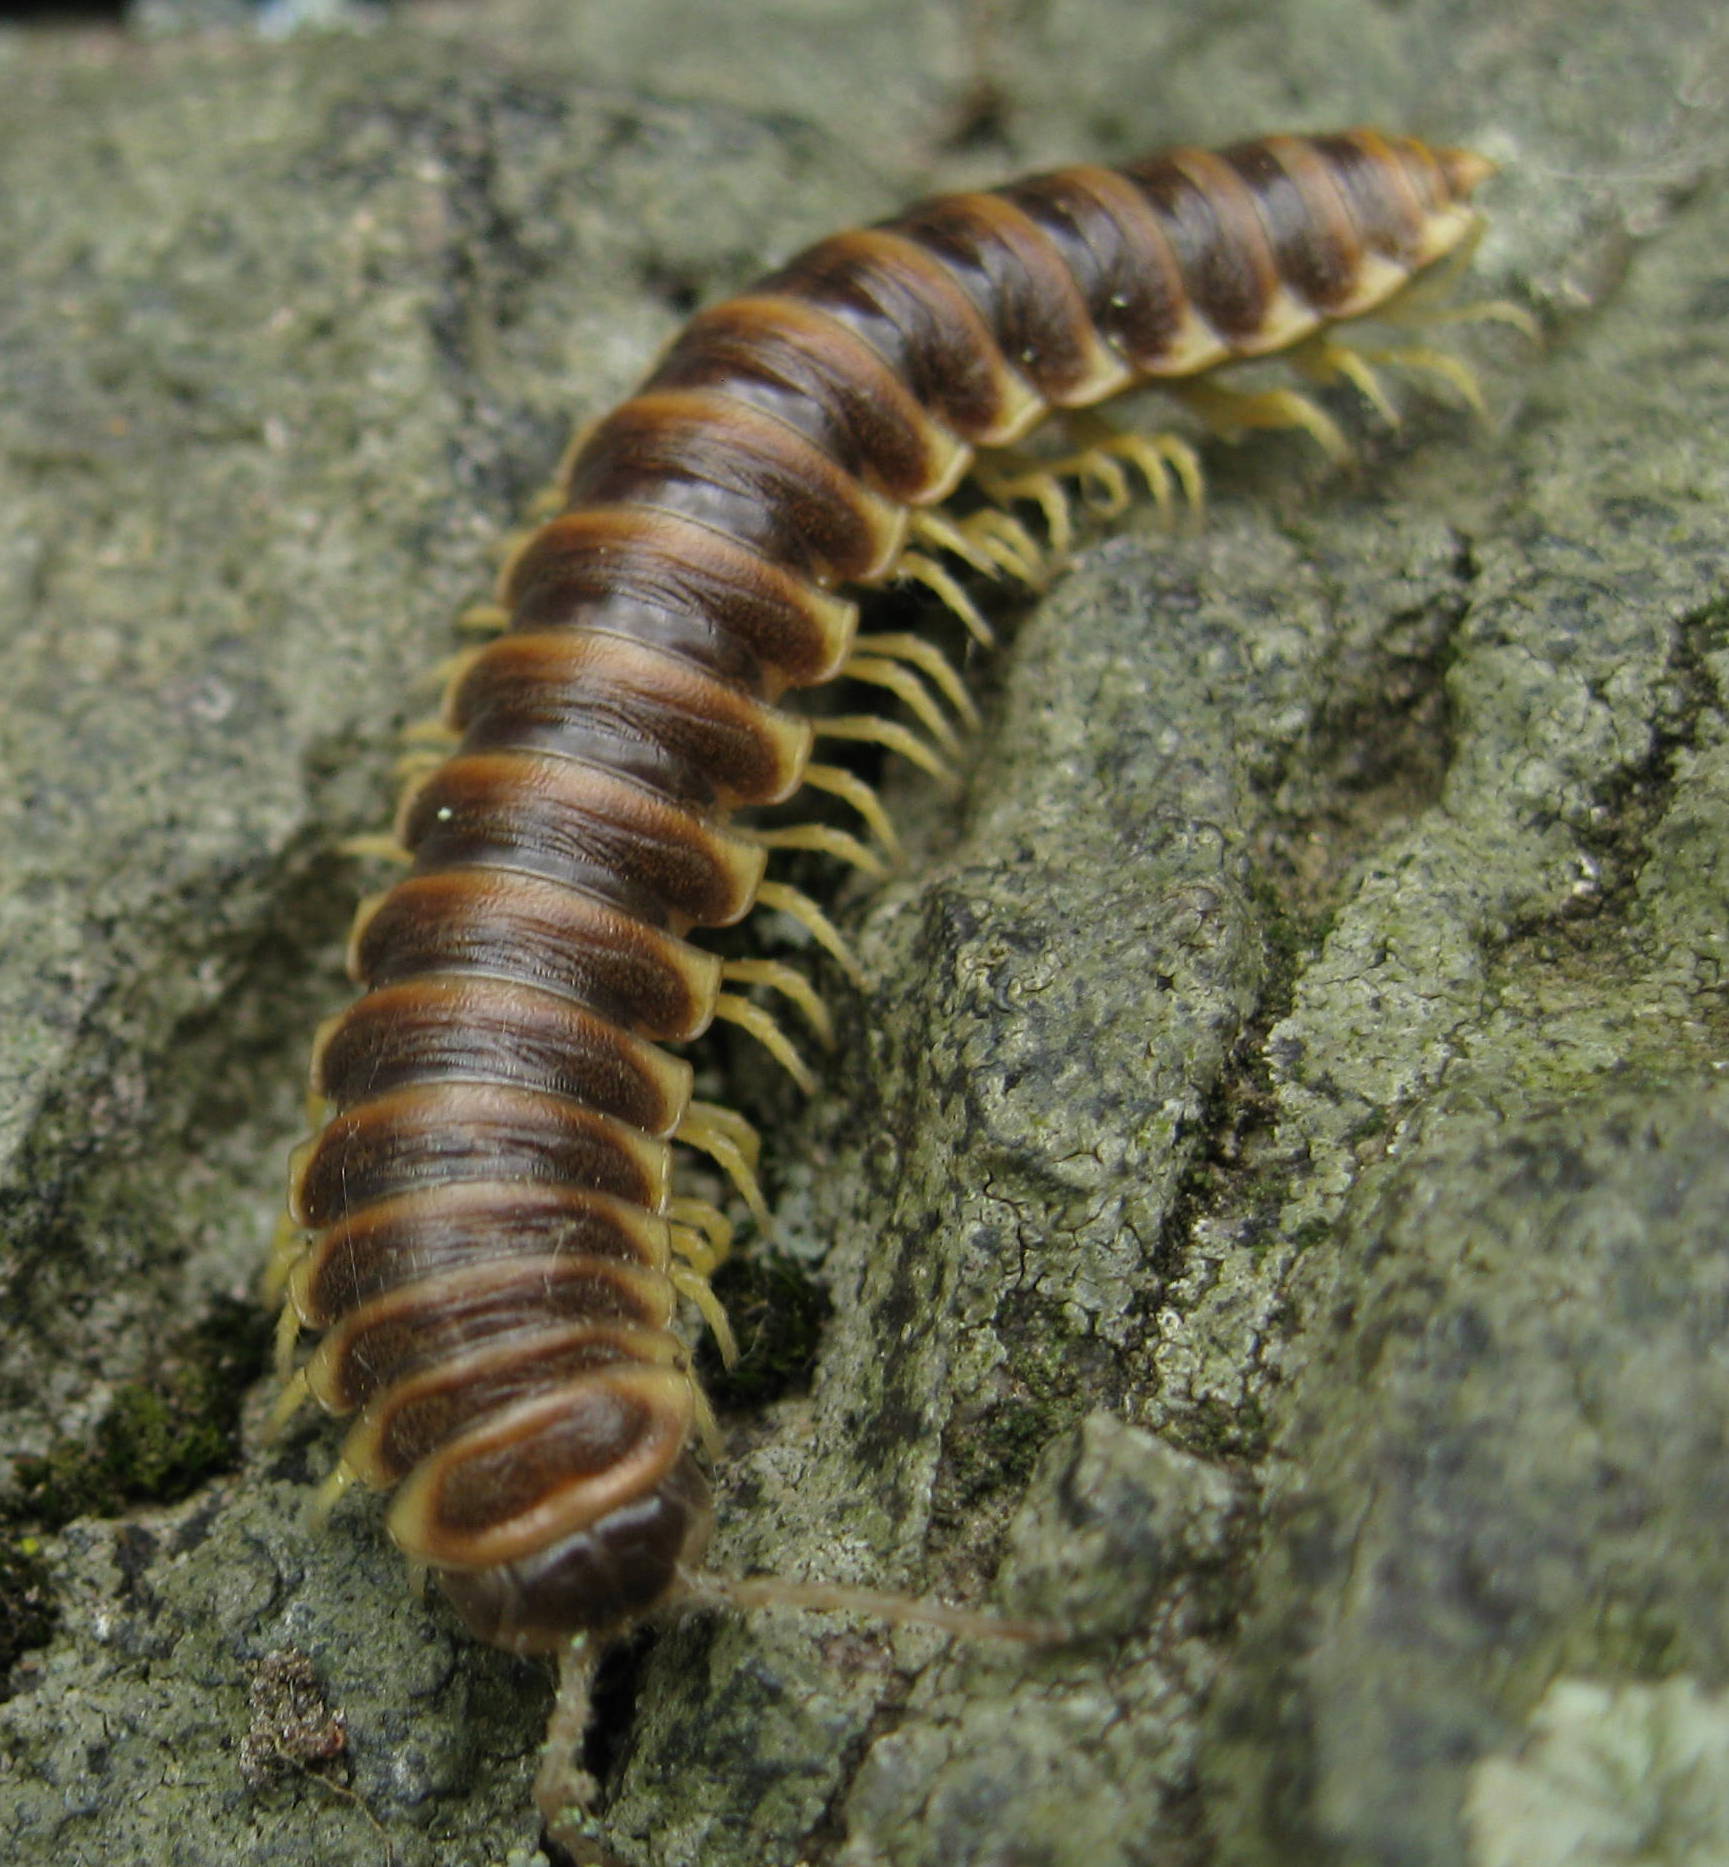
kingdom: Animalia
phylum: Arthropoda
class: Diplopoda
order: Polydesmida
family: Xystodesmidae
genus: Pleuroloma
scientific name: Pleuroloma flavipes
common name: Yellow-legged pleuroloma
